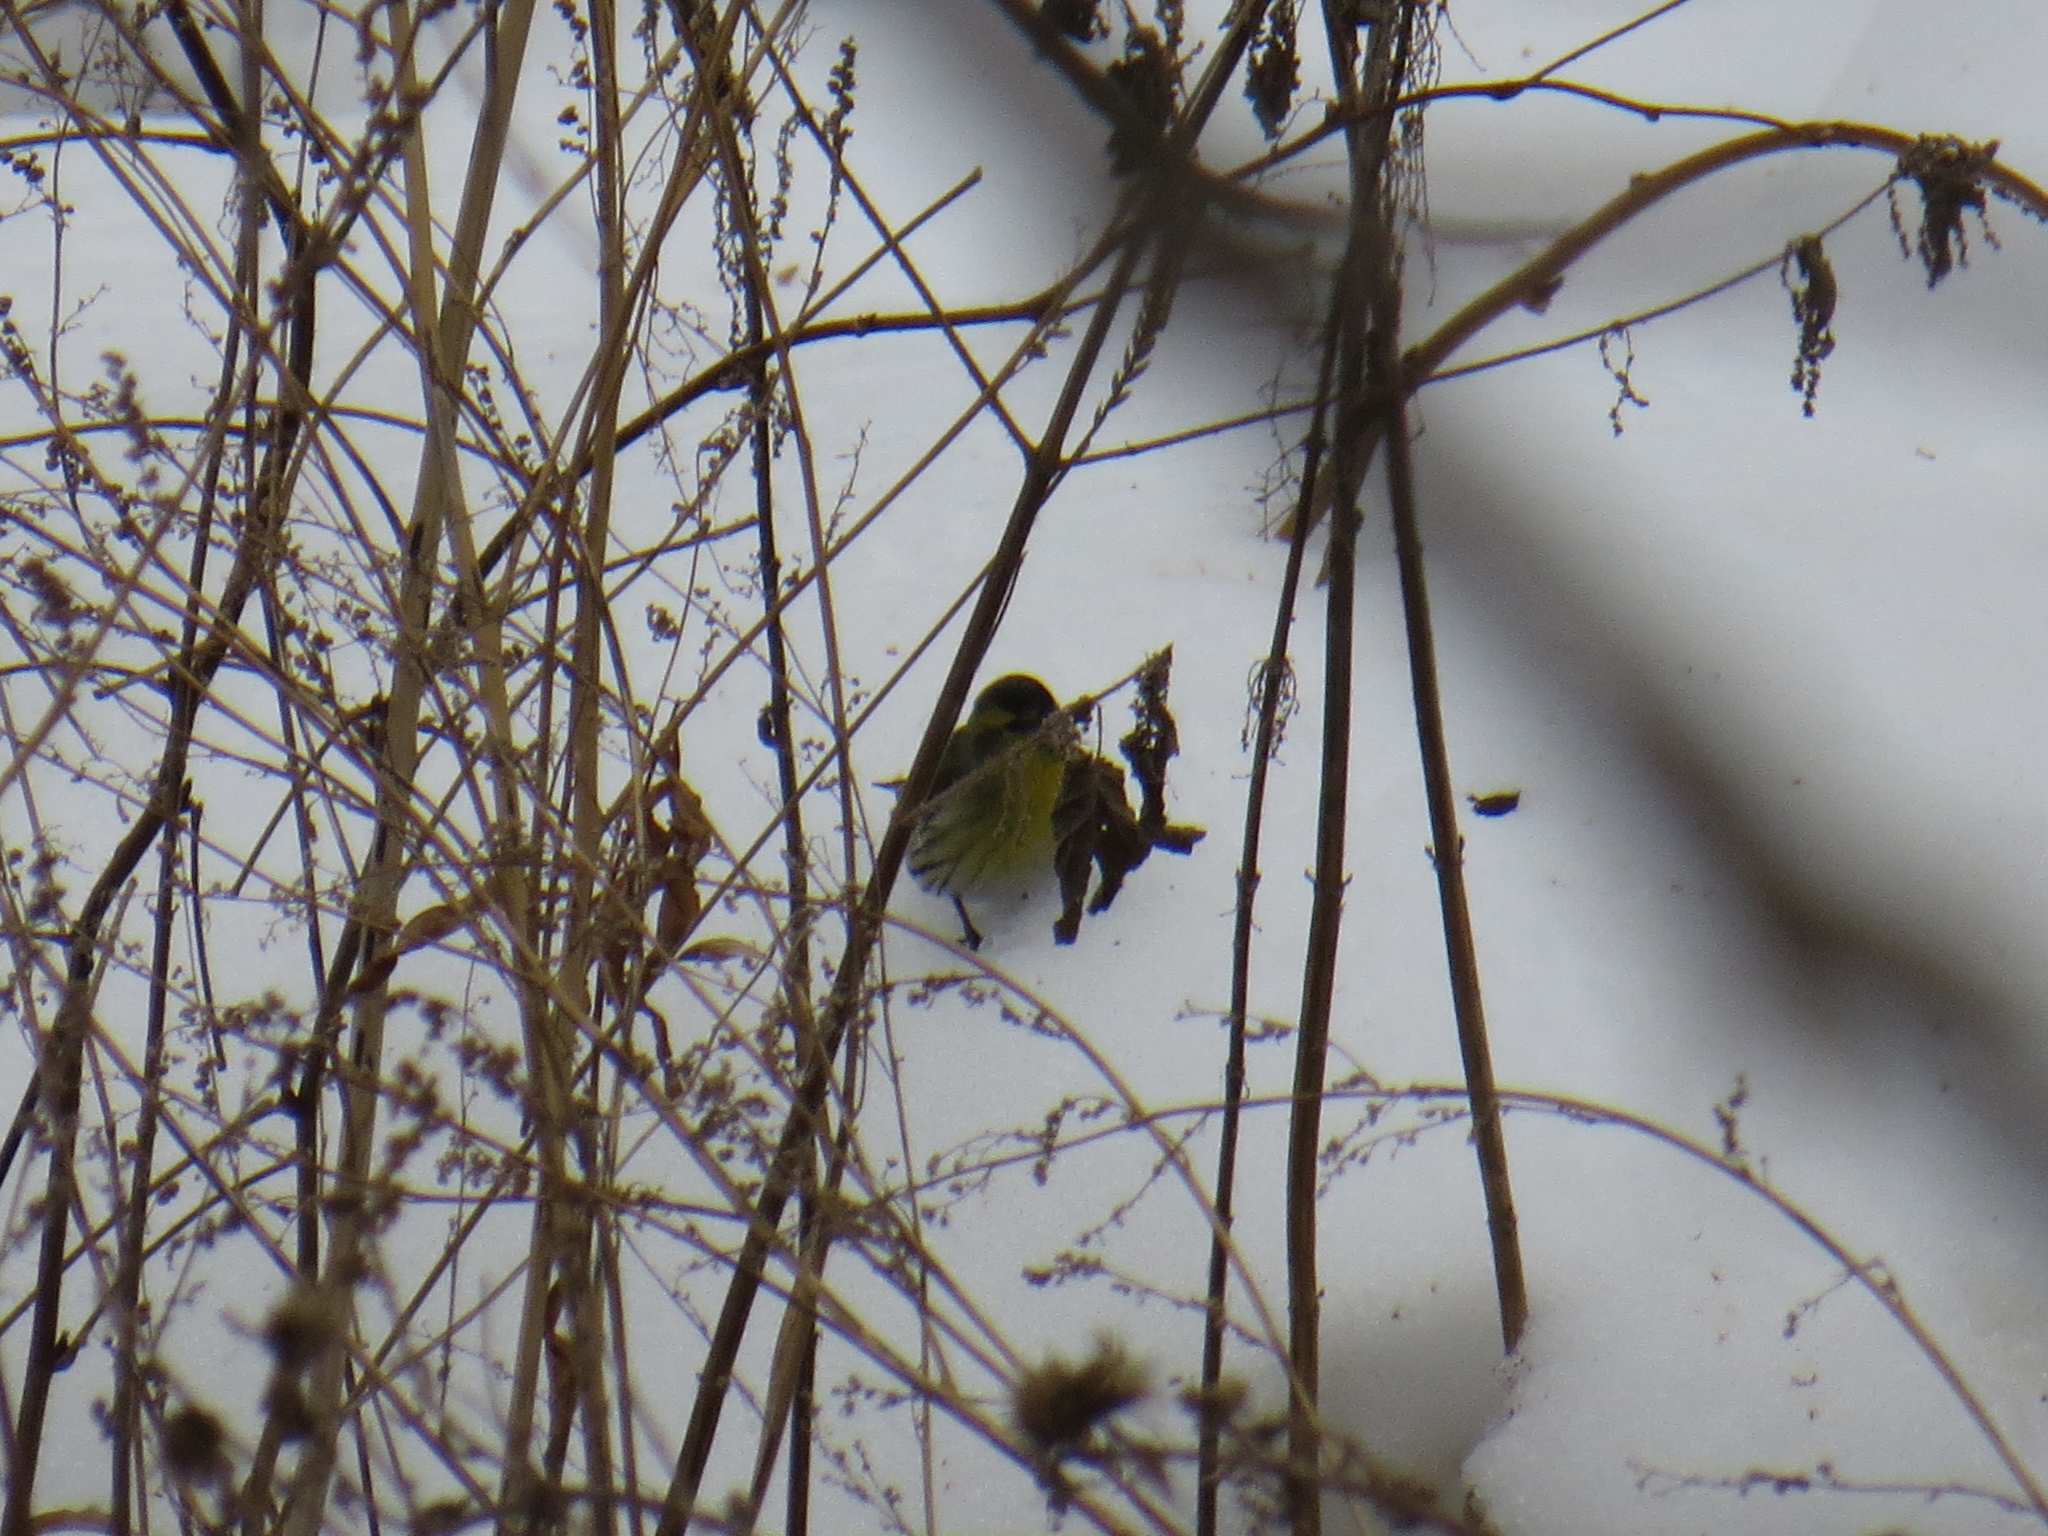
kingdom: Animalia
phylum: Chordata
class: Aves
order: Passeriformes
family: Fringillidae
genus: Spinus
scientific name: Spinus spinus
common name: Eurasian siskin
